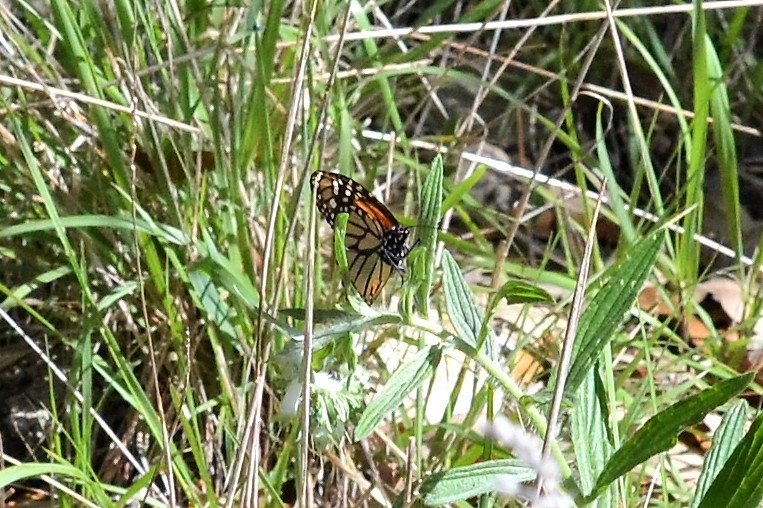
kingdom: Animalia
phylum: Arthropoda
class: Insecta
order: Lepidoptera
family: Nymphalidae
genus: Danaus
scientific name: Danaus plexippus
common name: Monarch
